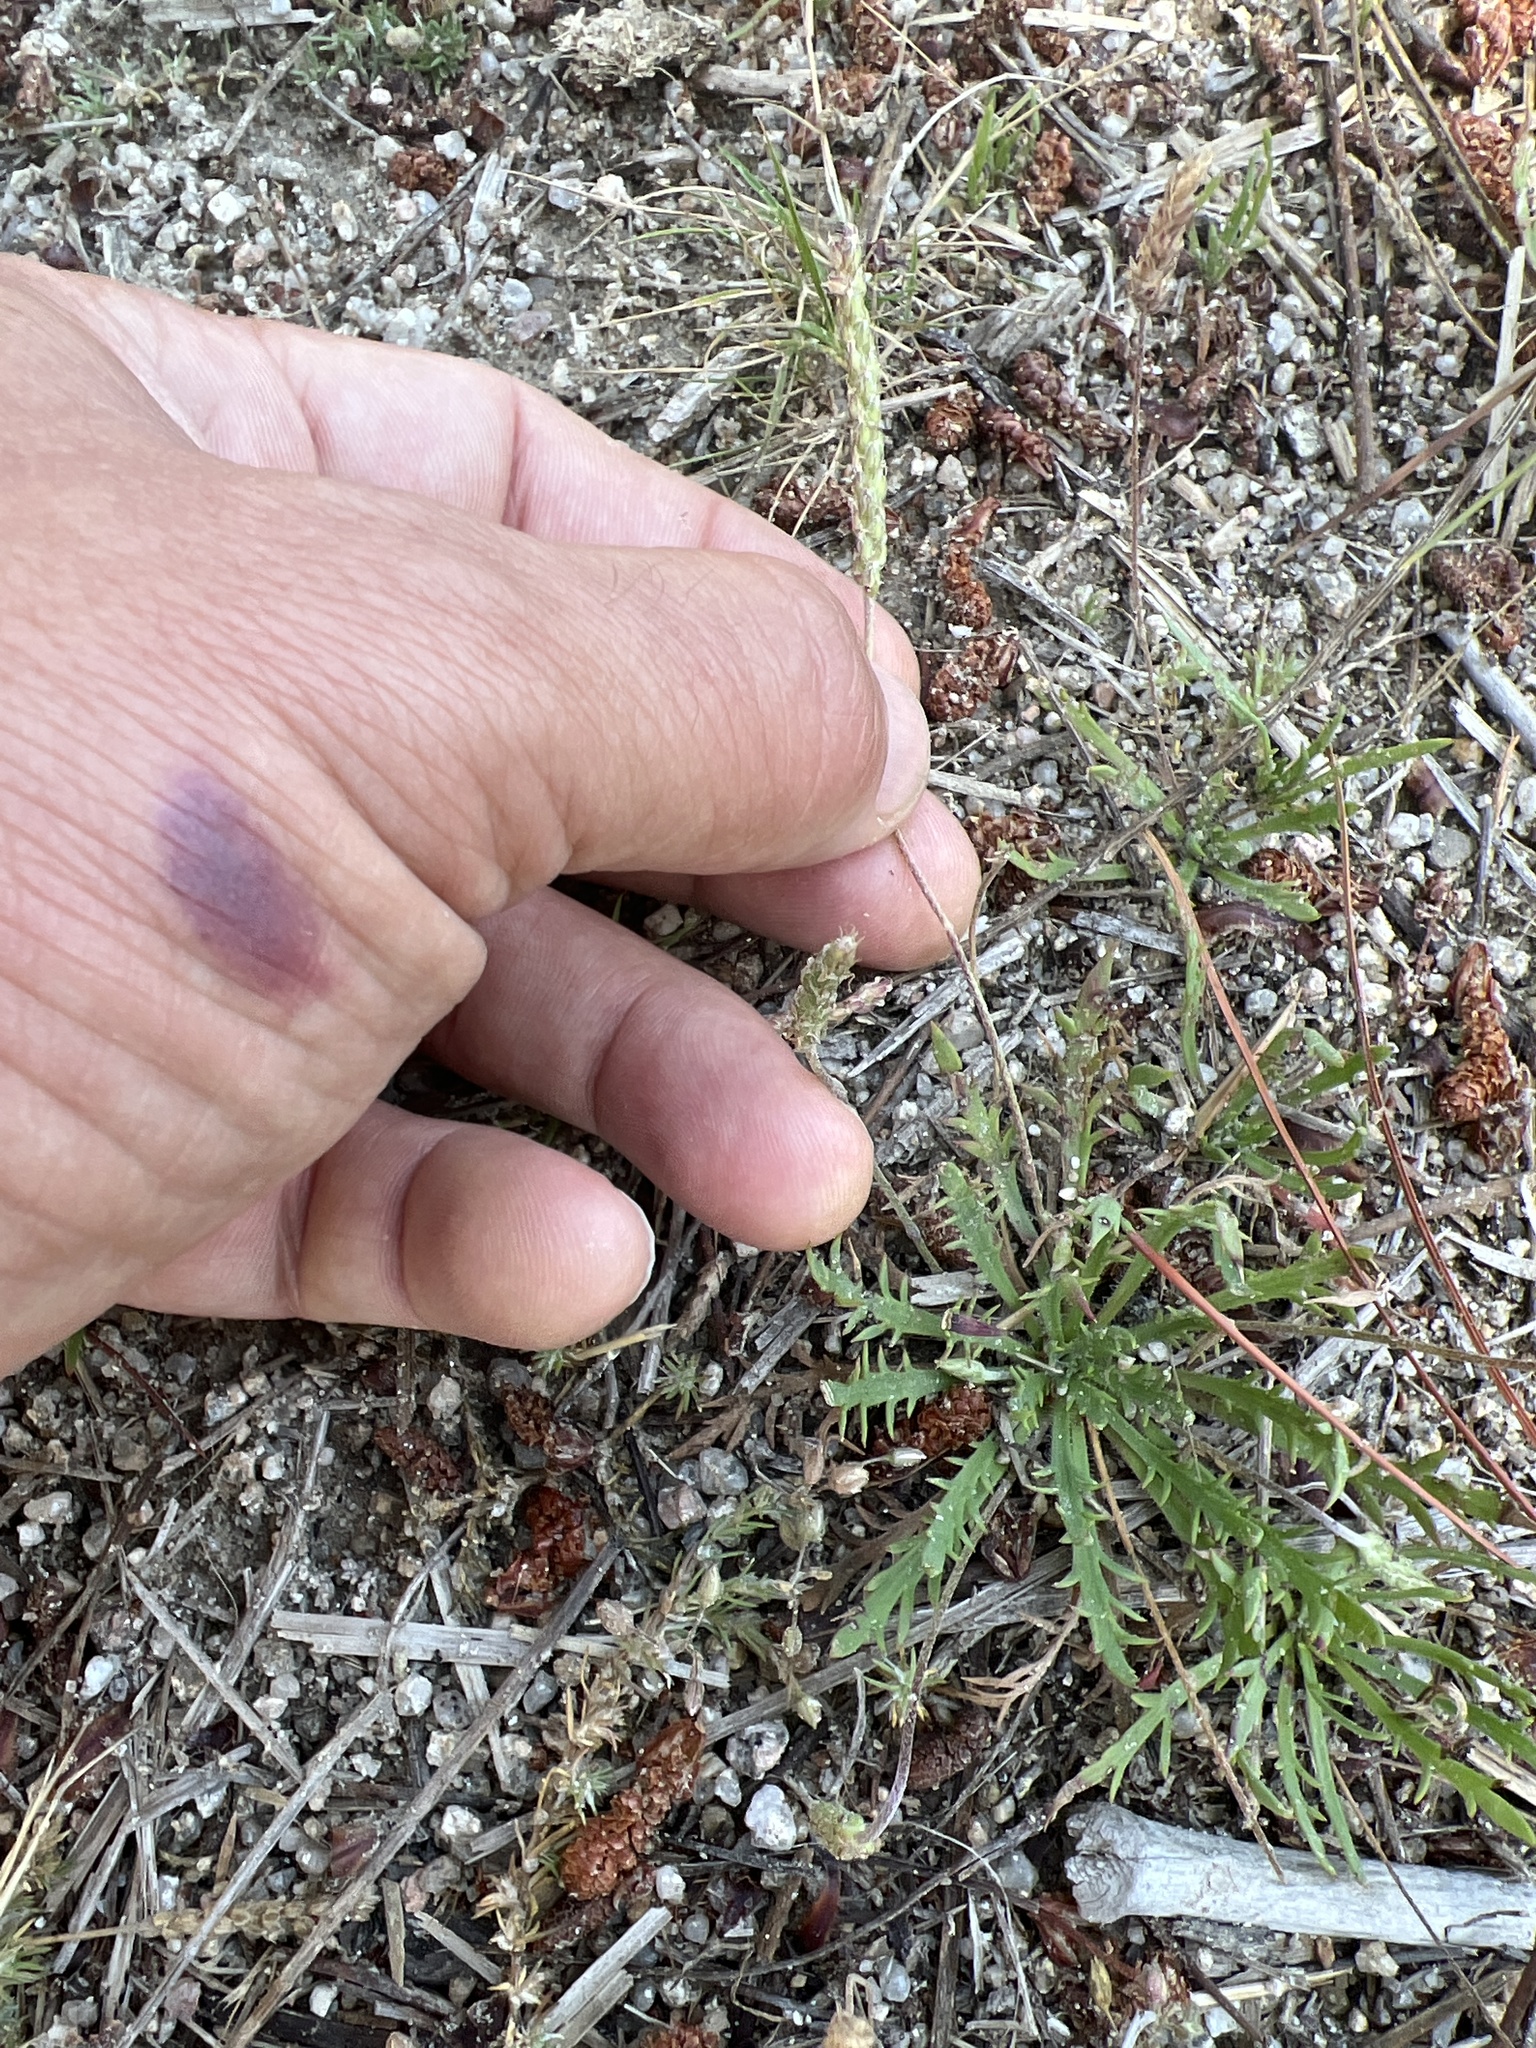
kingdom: Plantae
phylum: Tracheophyta
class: Magnoliopsida
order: Lamiales
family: Plantaginaceae
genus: Plantago
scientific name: Plantago coronopus
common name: Buck's-horn plantain
